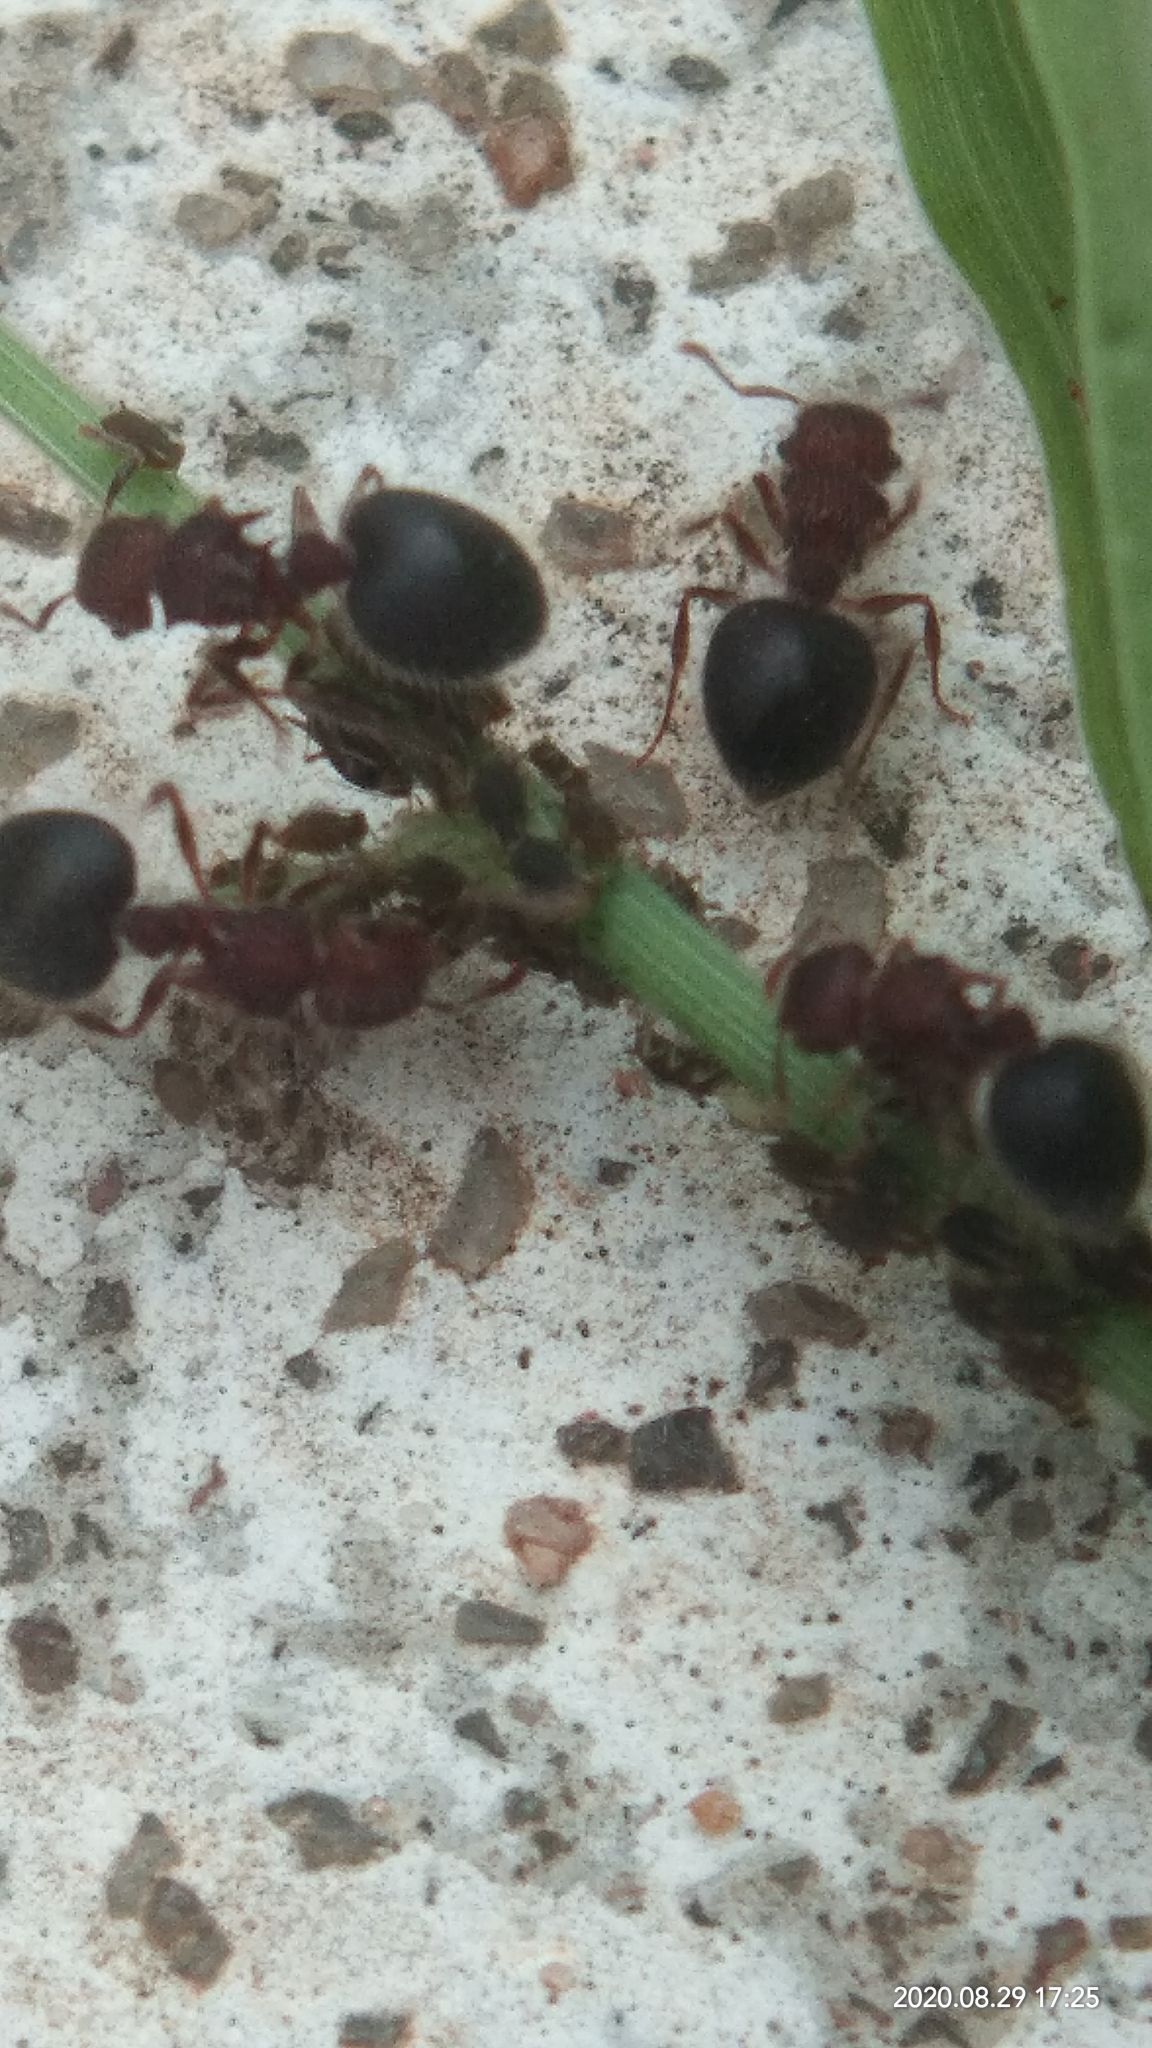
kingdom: Animalia
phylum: Arthropoda
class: Insecta
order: Hymenoptera
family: Formicidae
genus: Meranoplus
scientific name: Meranoplus bicolor
